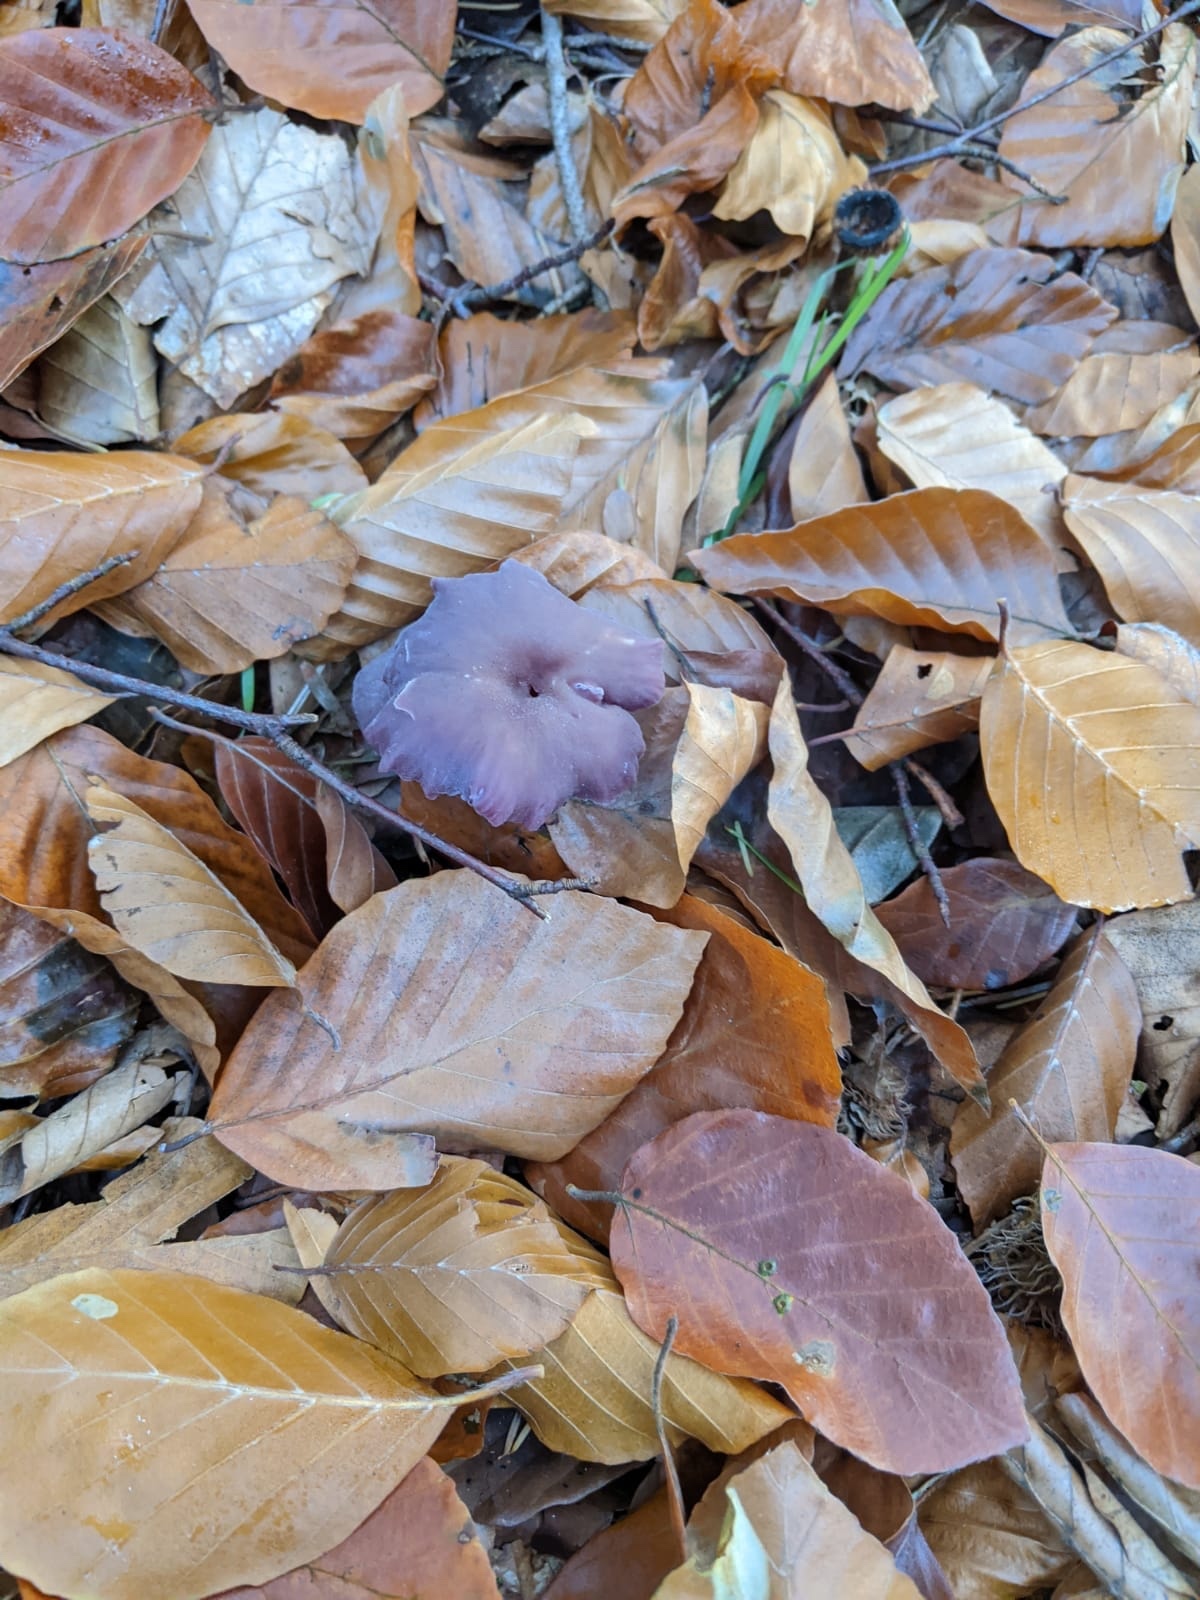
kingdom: Fungi
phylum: Basidiomycota
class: Agaricomycetes
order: Agaricales
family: Hydnangiaceae
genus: Laccaria
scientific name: Laccaria amethystina
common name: Amethyst deceiver
